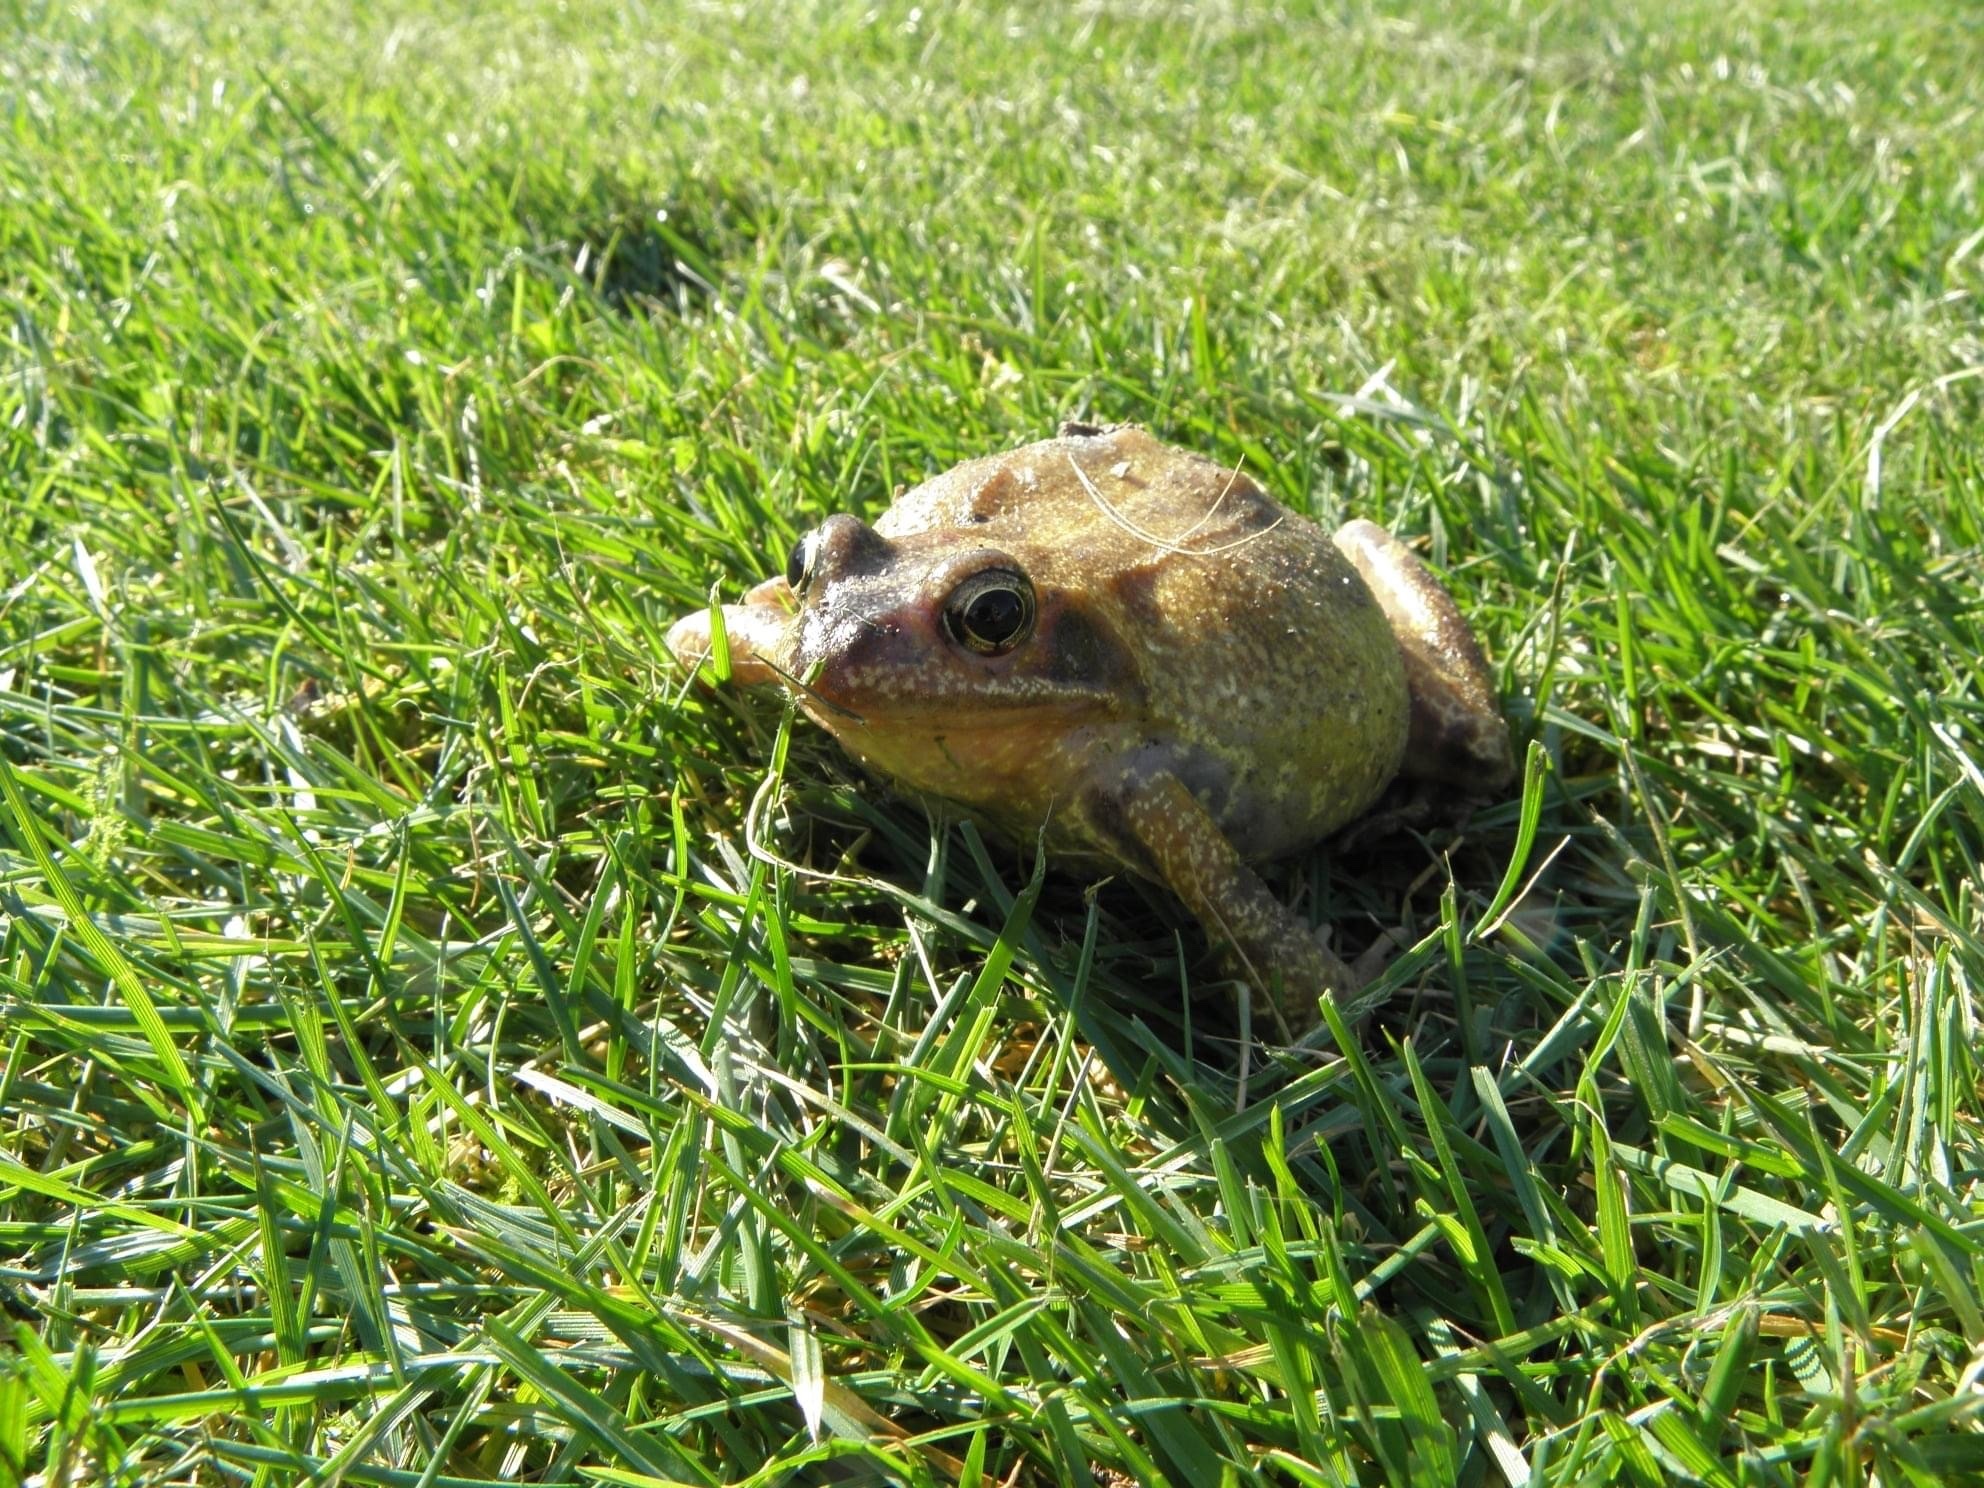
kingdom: Animalia
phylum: Chordata
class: Amphibia
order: Anura
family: Ranidae
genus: Rana
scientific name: Rana temporaria
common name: Common frog
